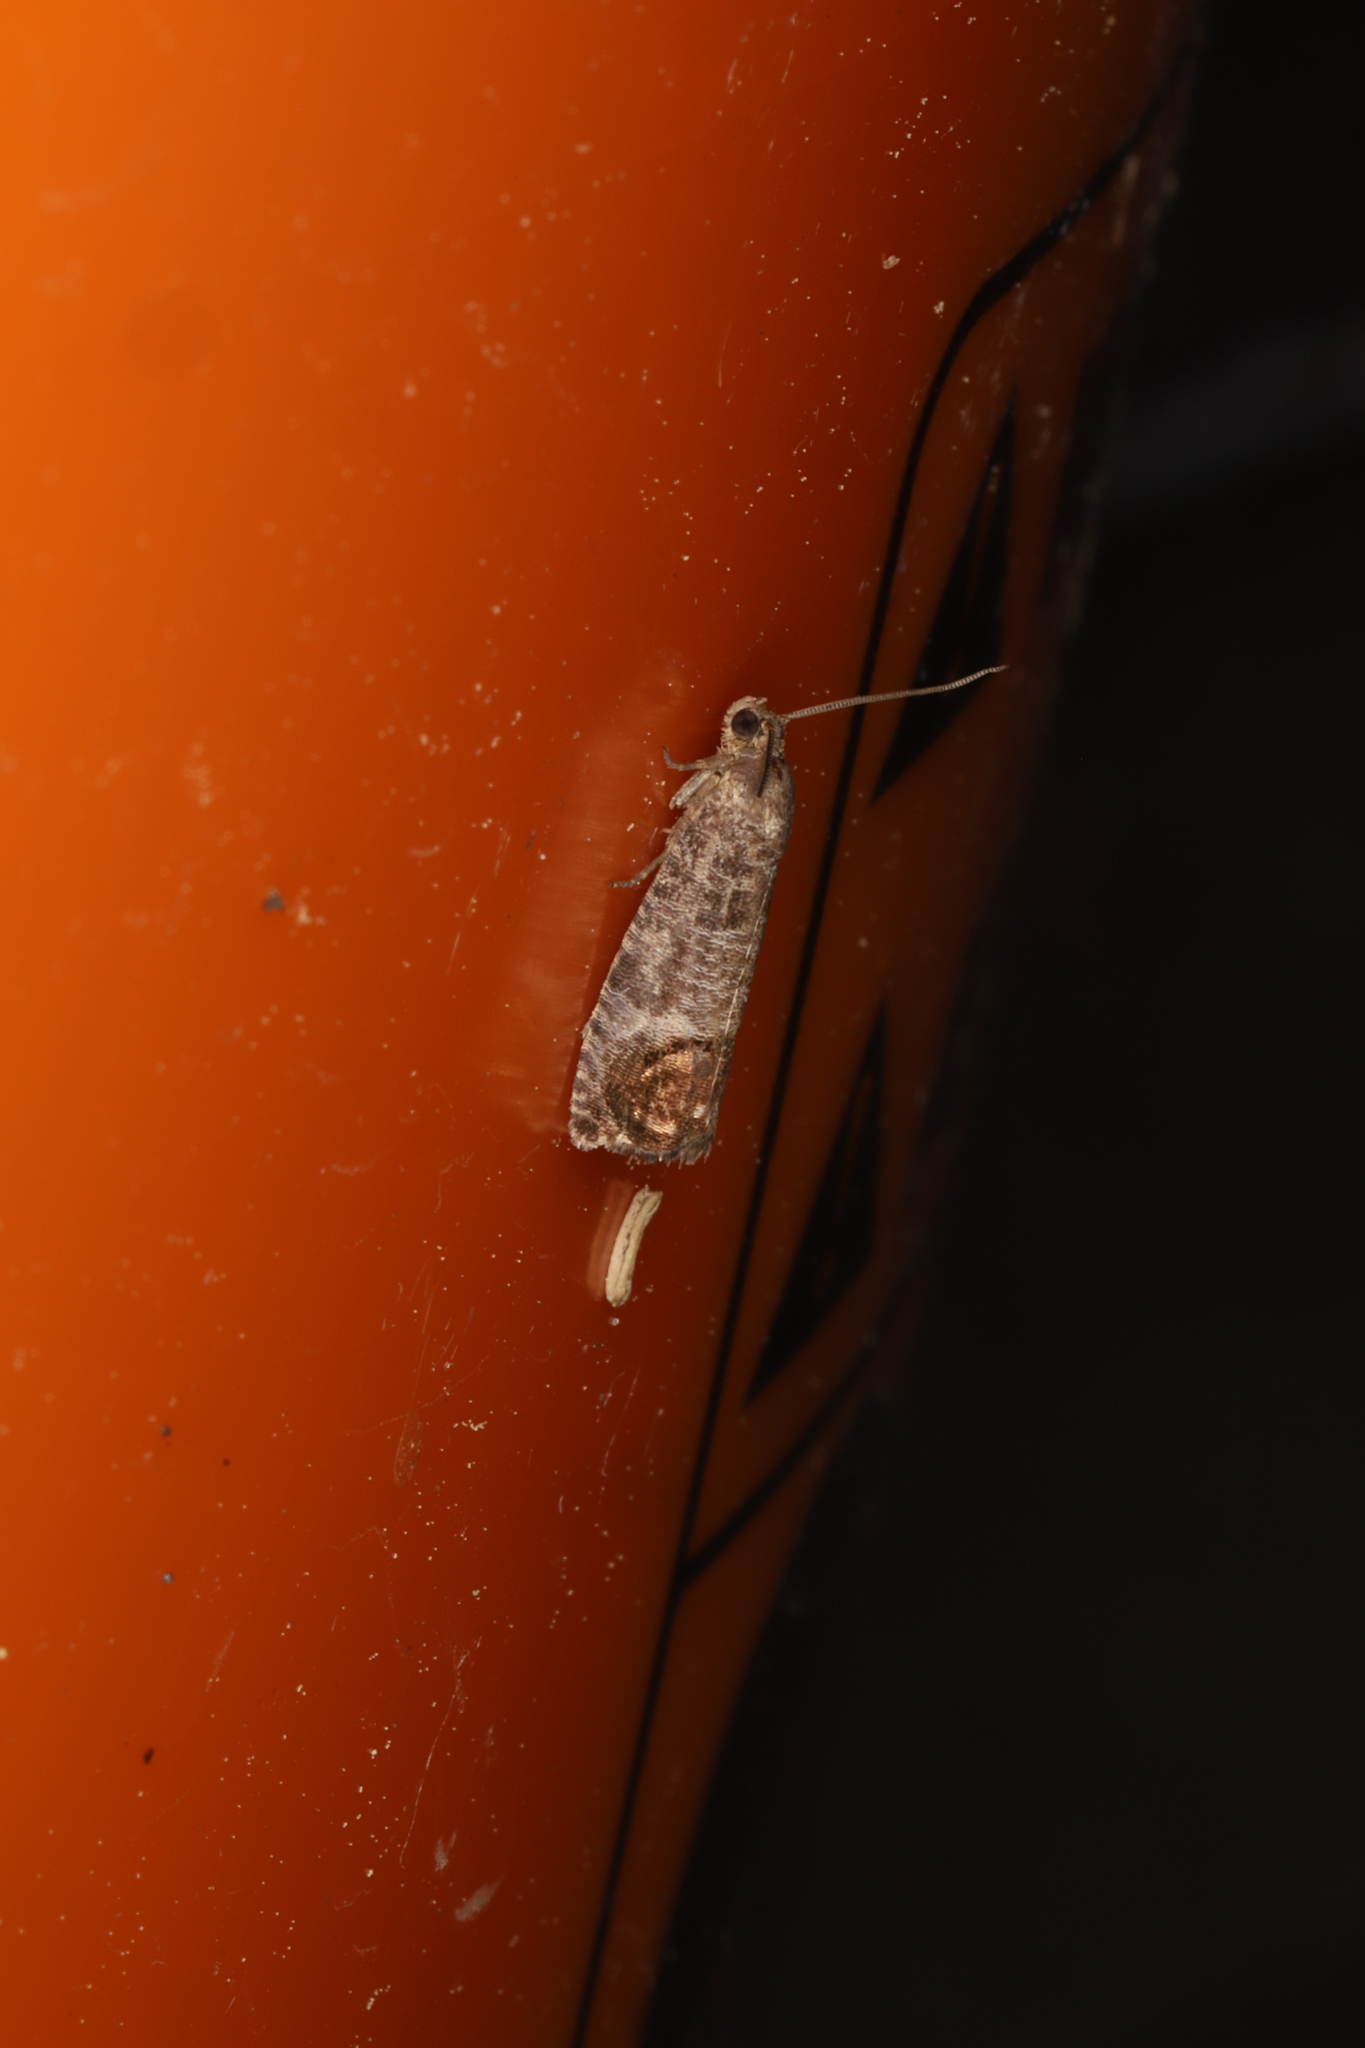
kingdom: Animalia
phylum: Arthropoda
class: Insecta
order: Lepidoptera
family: Tortricidae
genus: Cydia
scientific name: Cydia pomonella
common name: Codling moth
